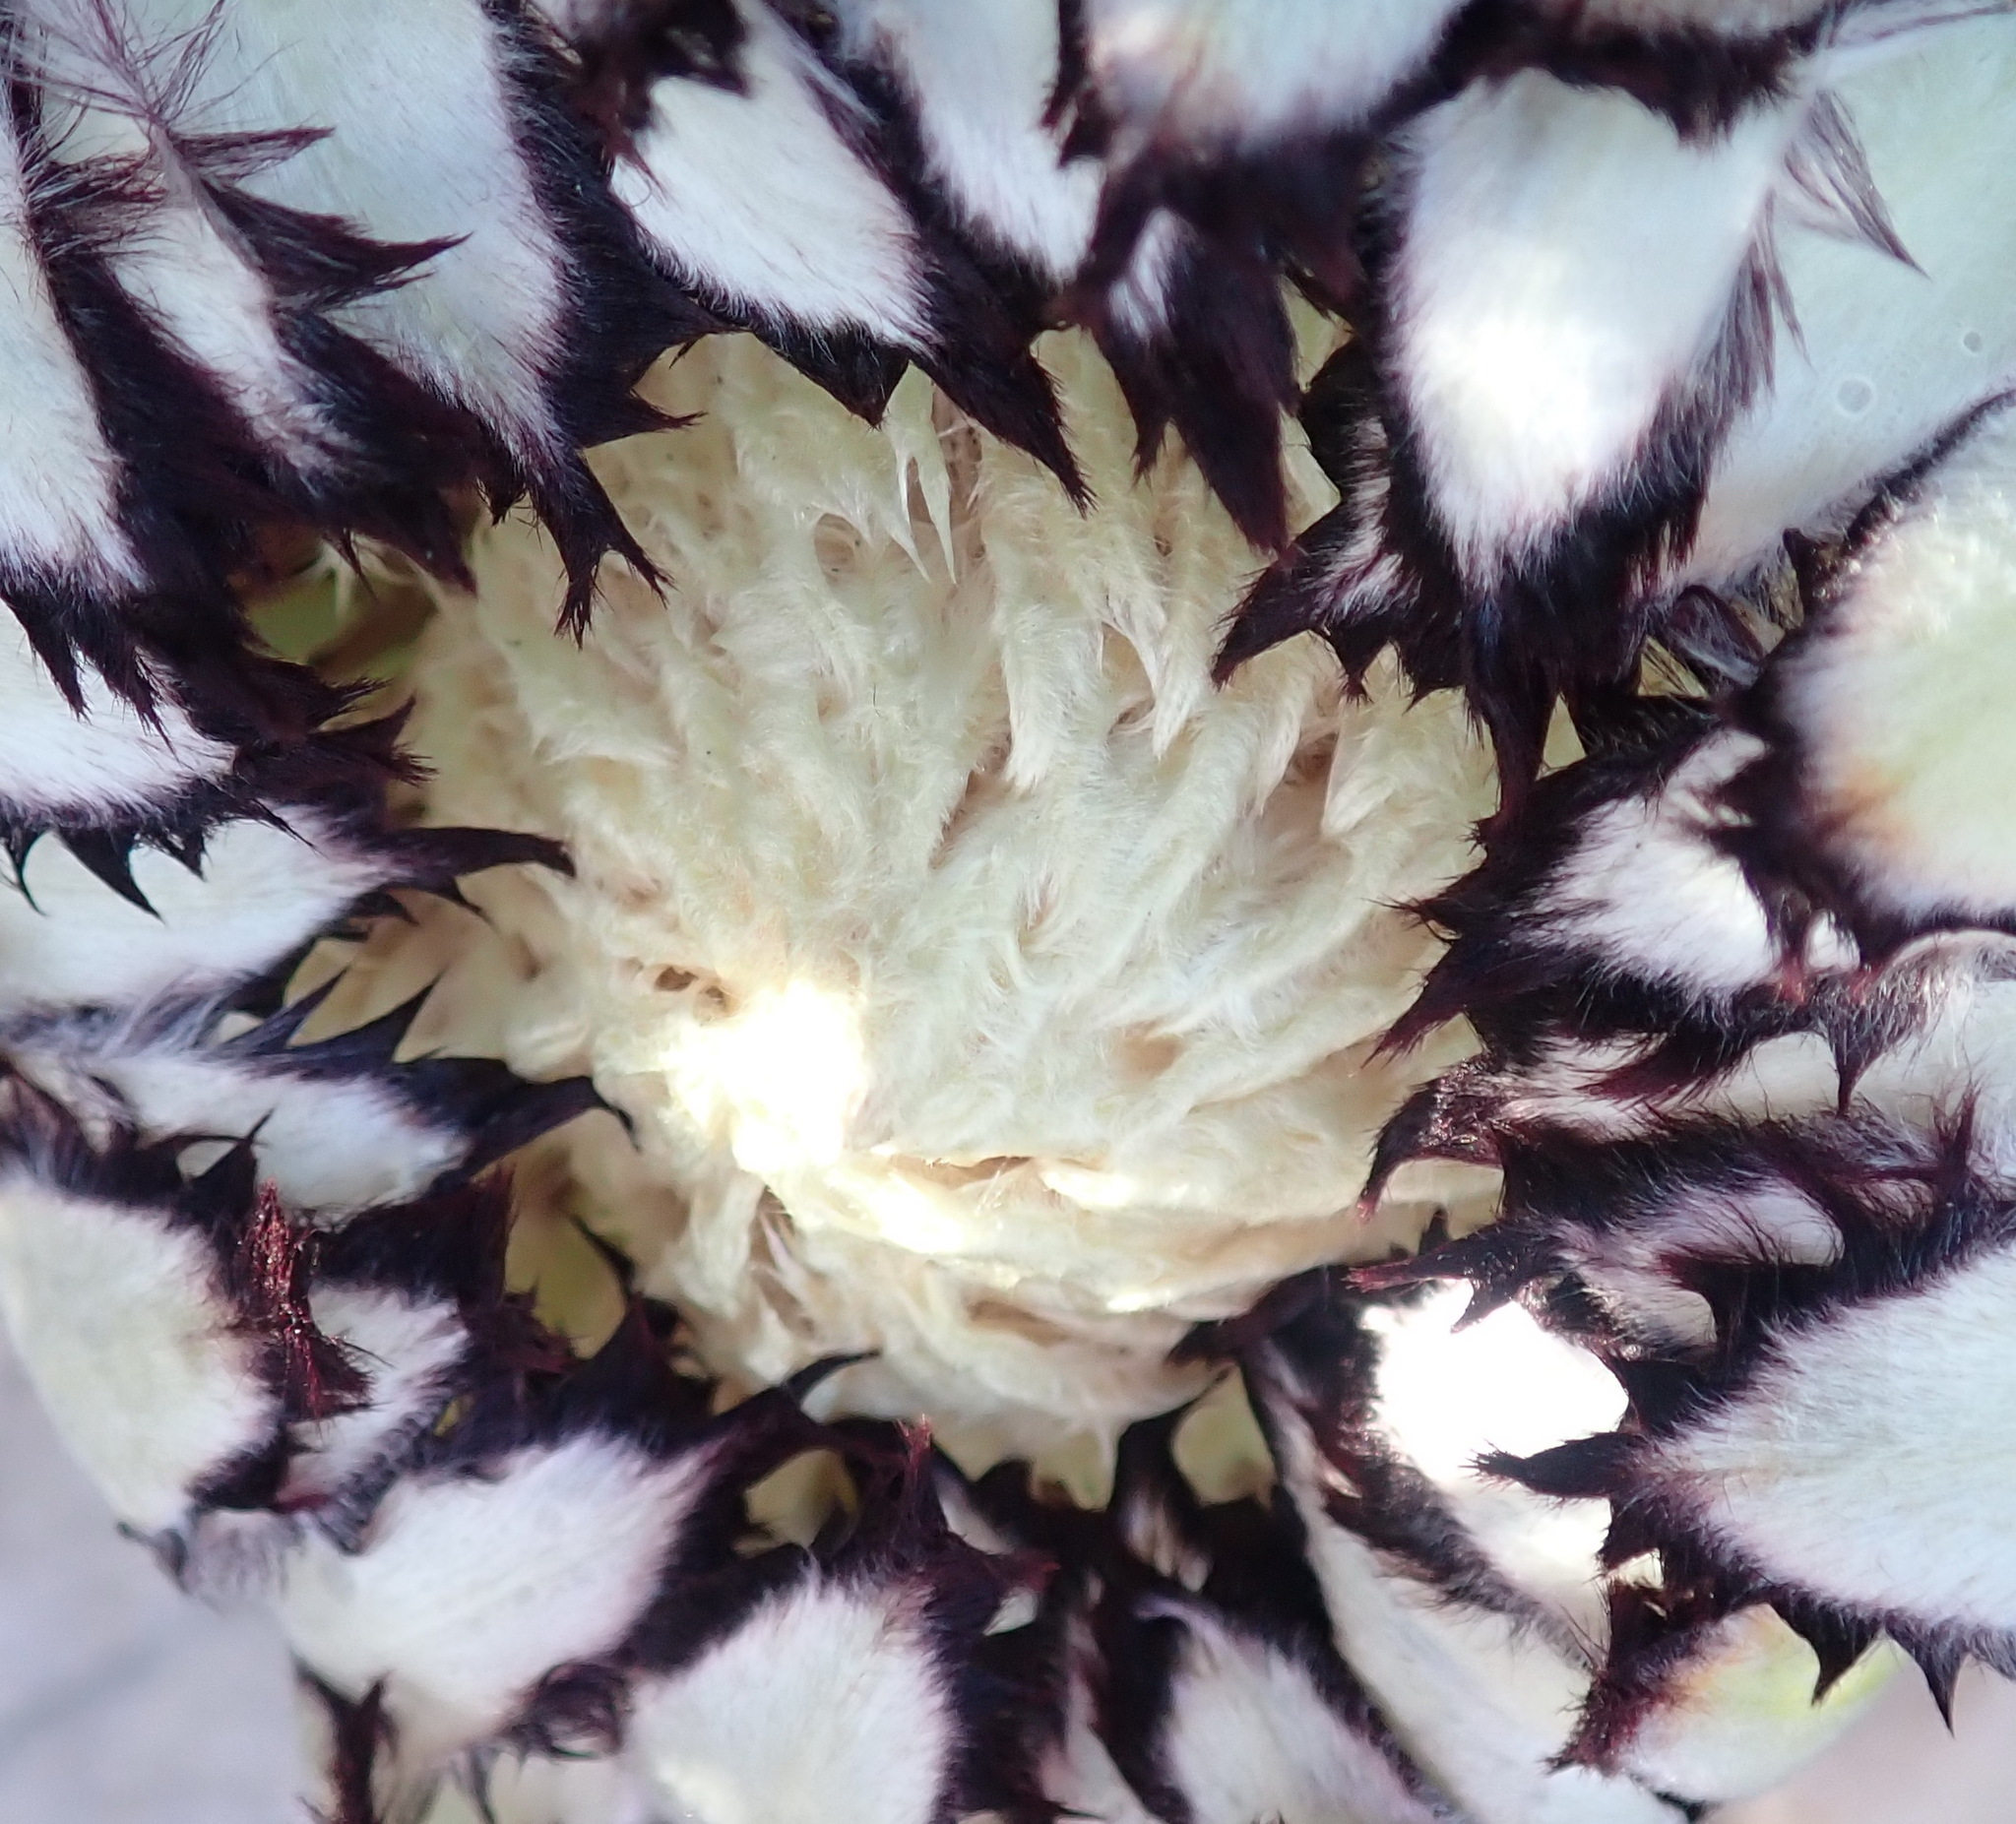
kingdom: Plantae
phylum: Tracheophyta
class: Magnoliopsida
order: Proteales
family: Proteaceae
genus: Protea
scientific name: Protea neriifolia
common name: Blue sugarbush
